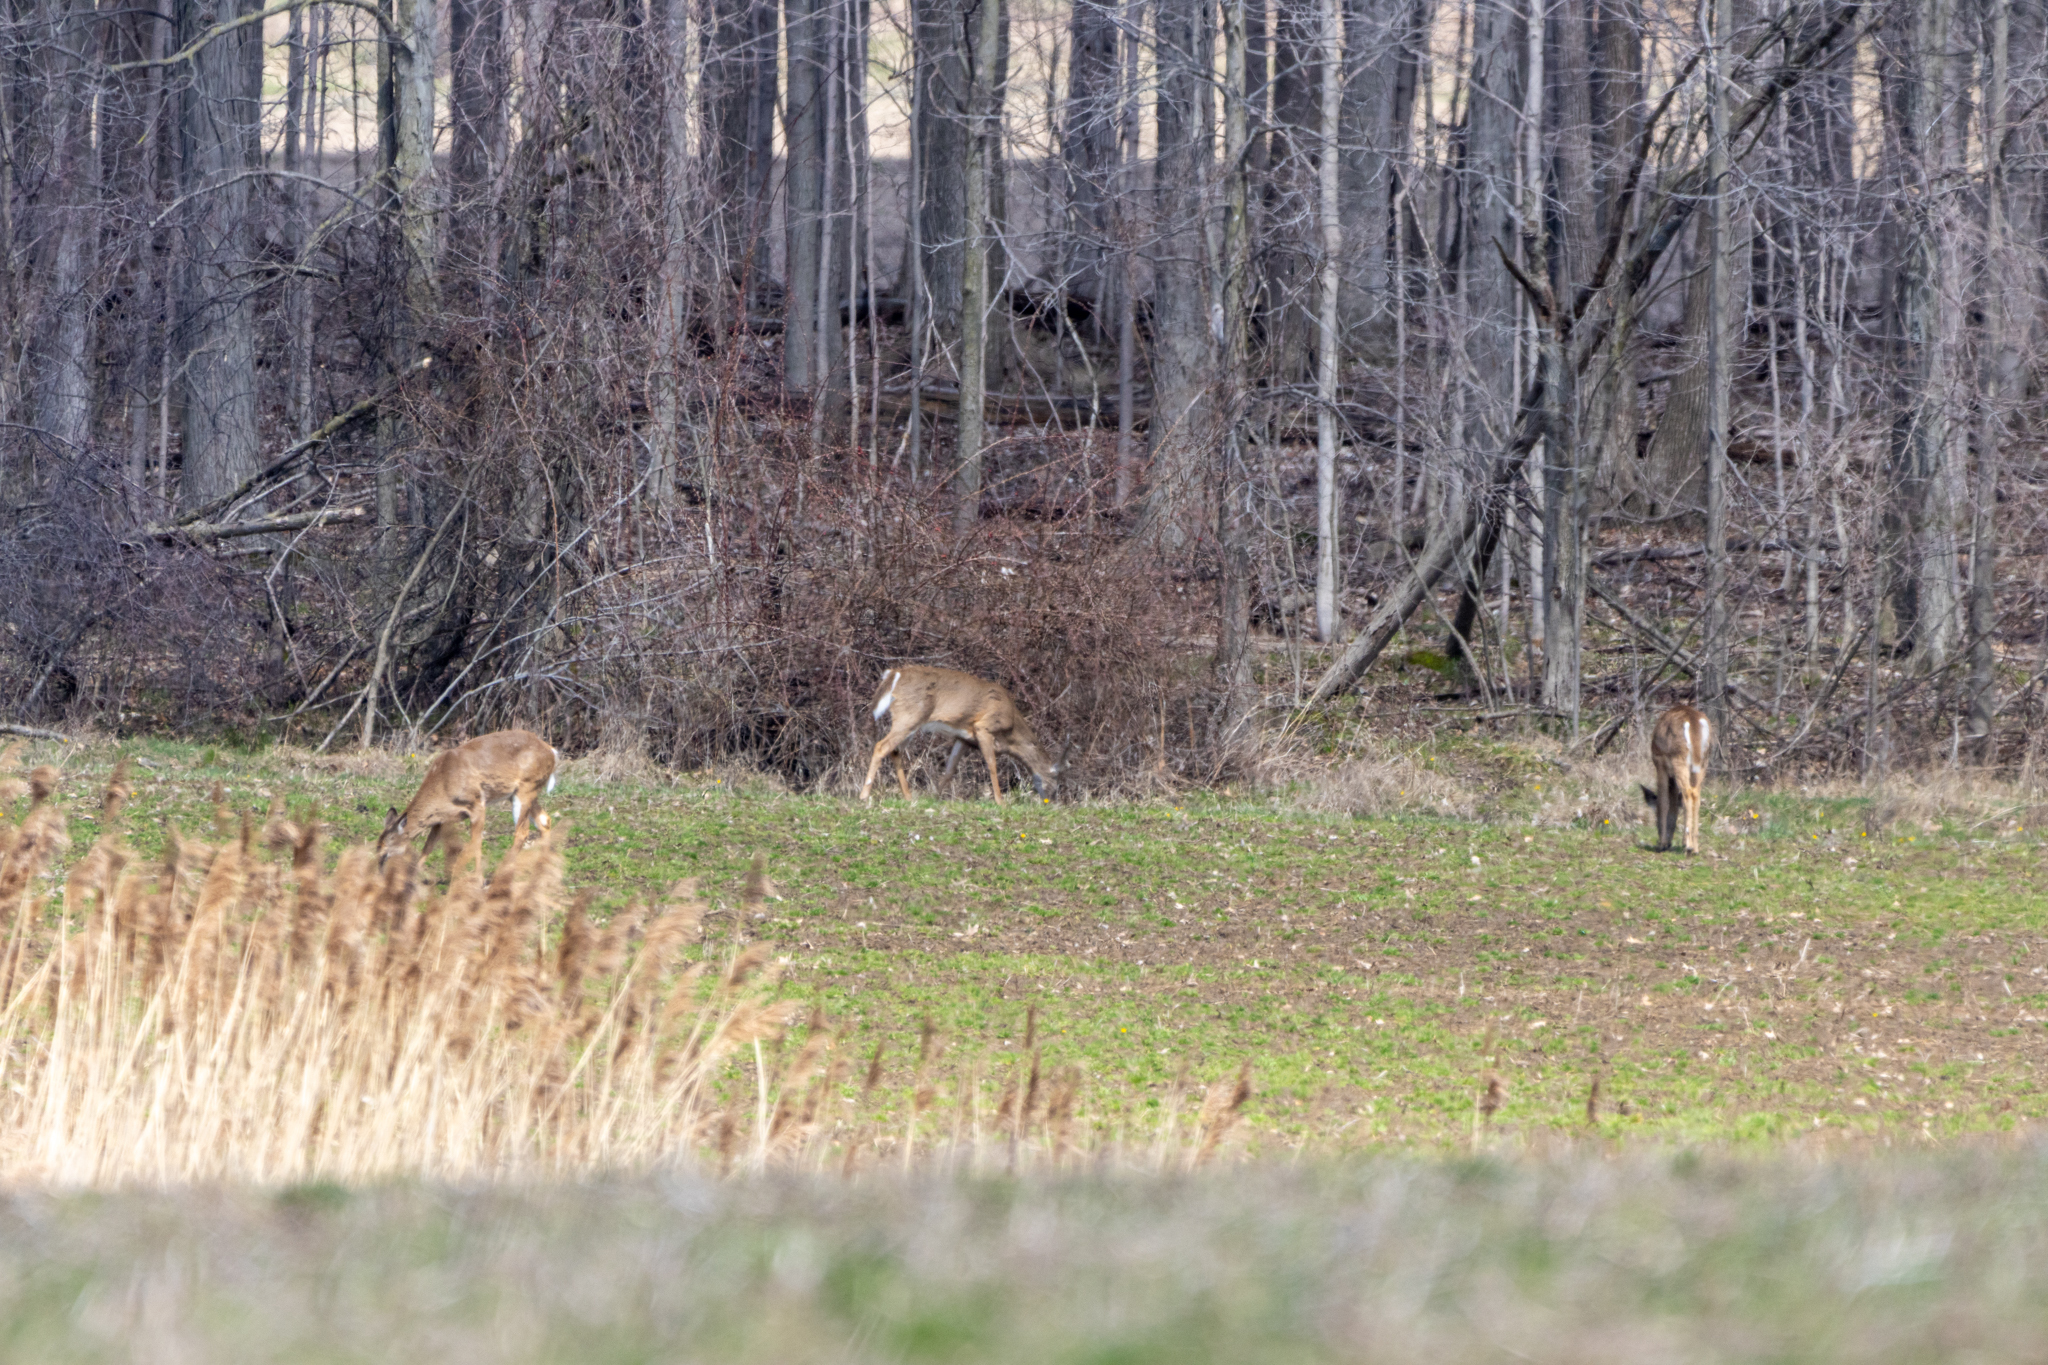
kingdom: Animalia
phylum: Chordata
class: Mammalia
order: Artiodactyla
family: Cervidae
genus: Odocoileus
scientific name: Odocoileus virginianus
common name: White-tailed deer
